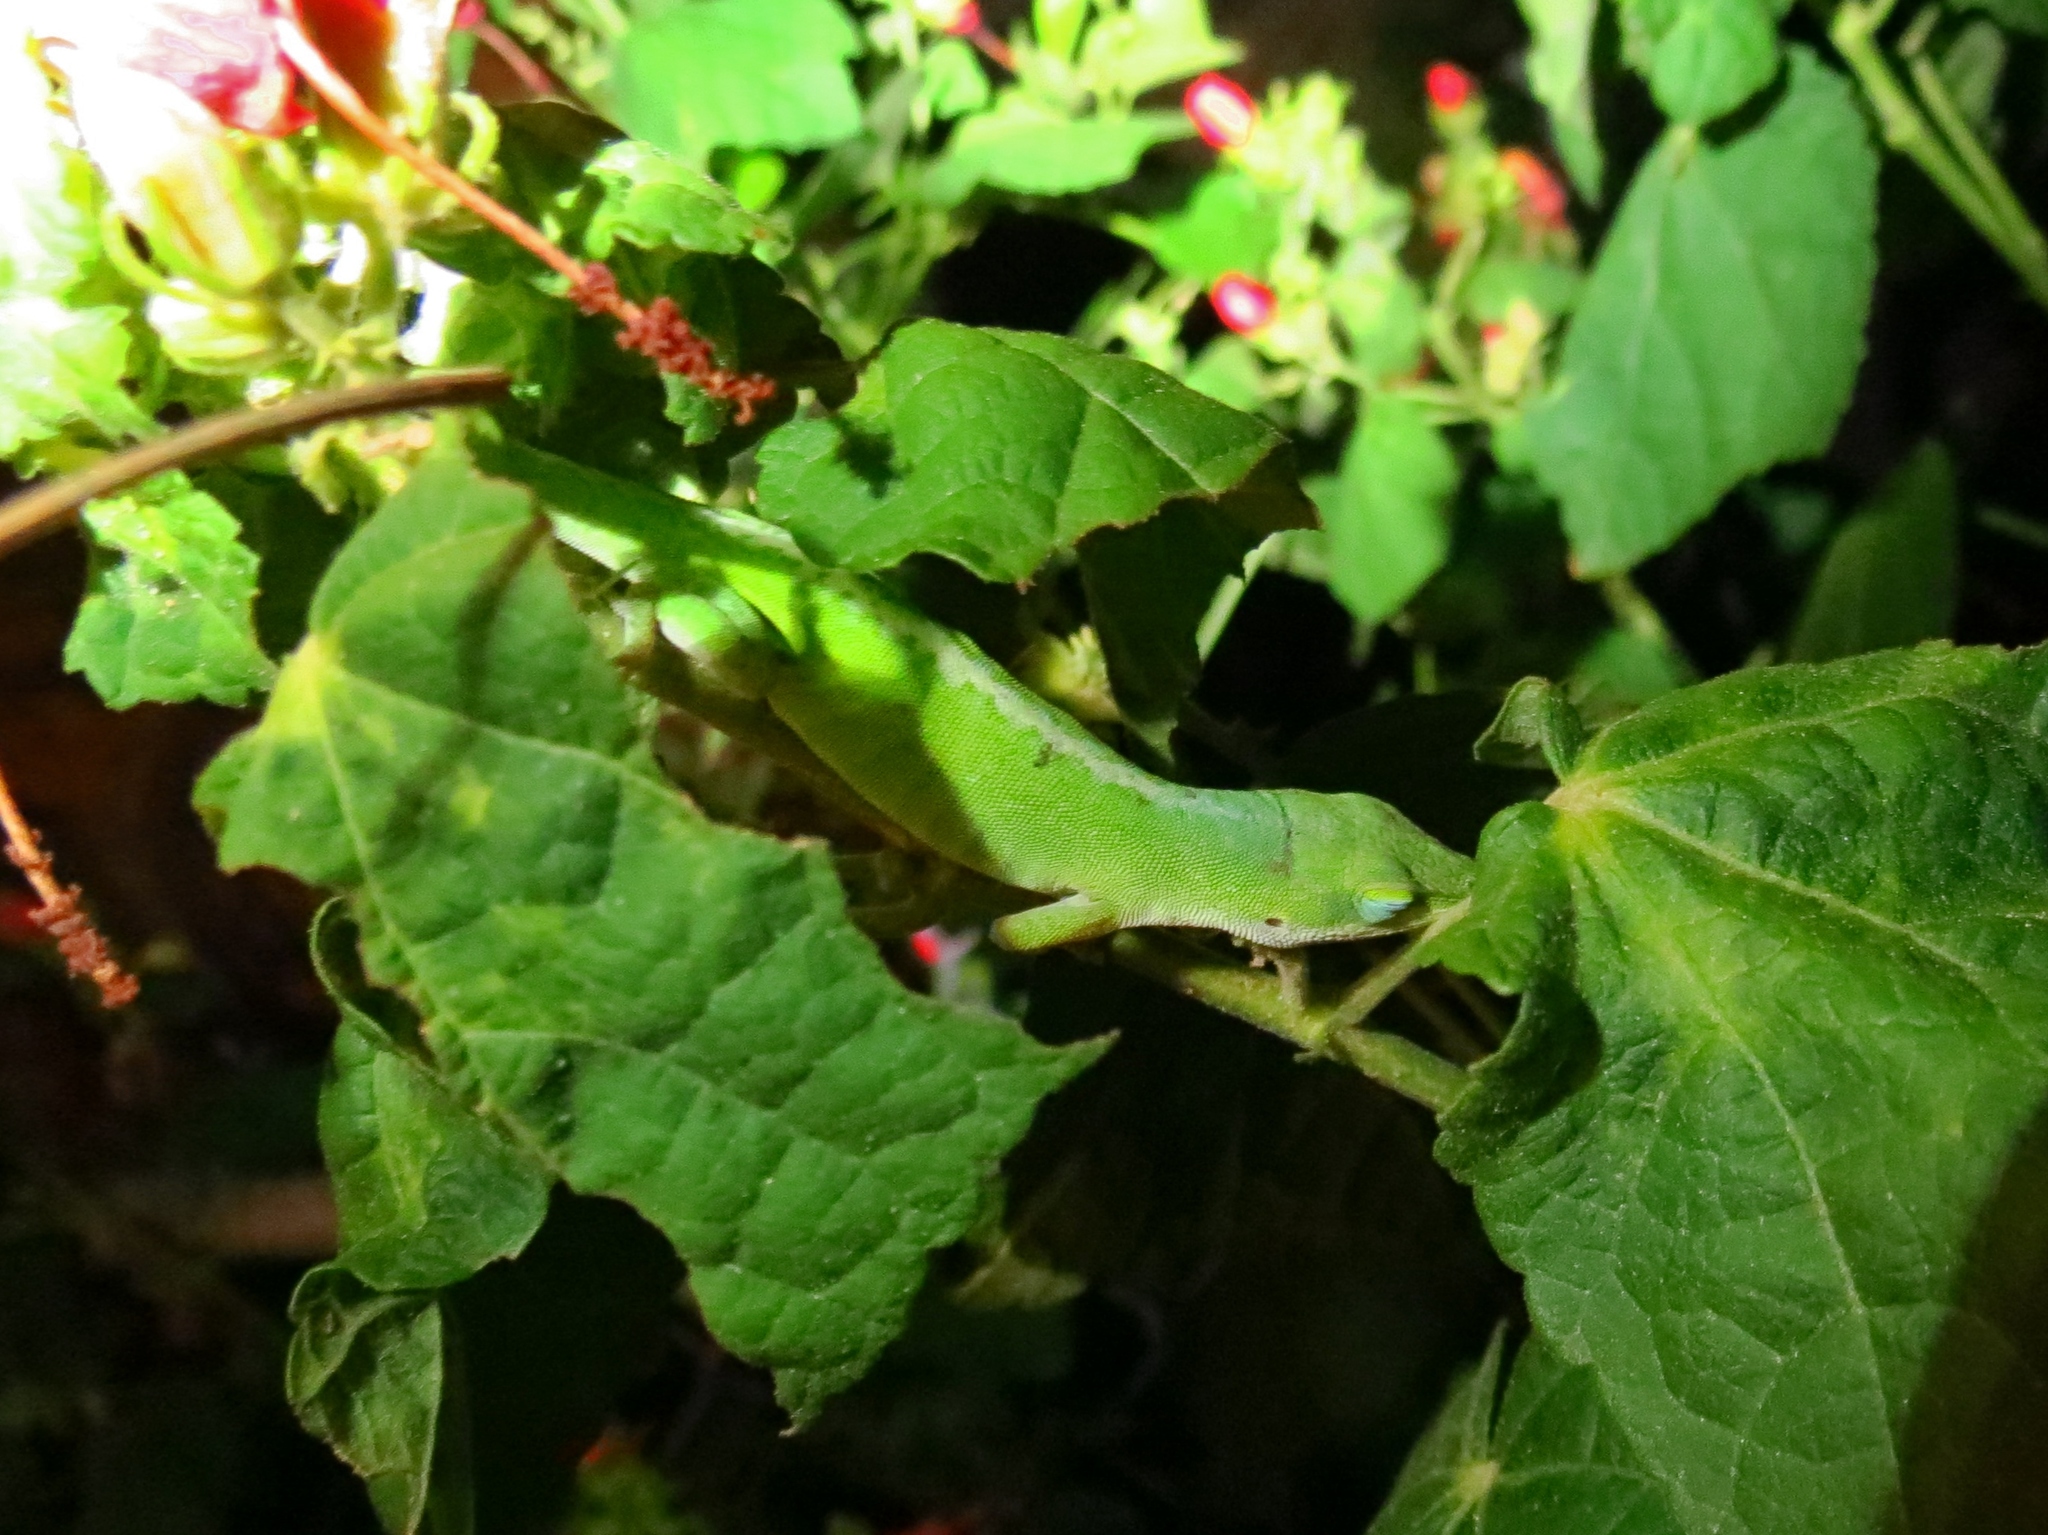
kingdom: Animalia
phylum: Chordata
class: Squamata
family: Dactyloidae
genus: Anolis
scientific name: Anolis carolinensis
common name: Green anole
